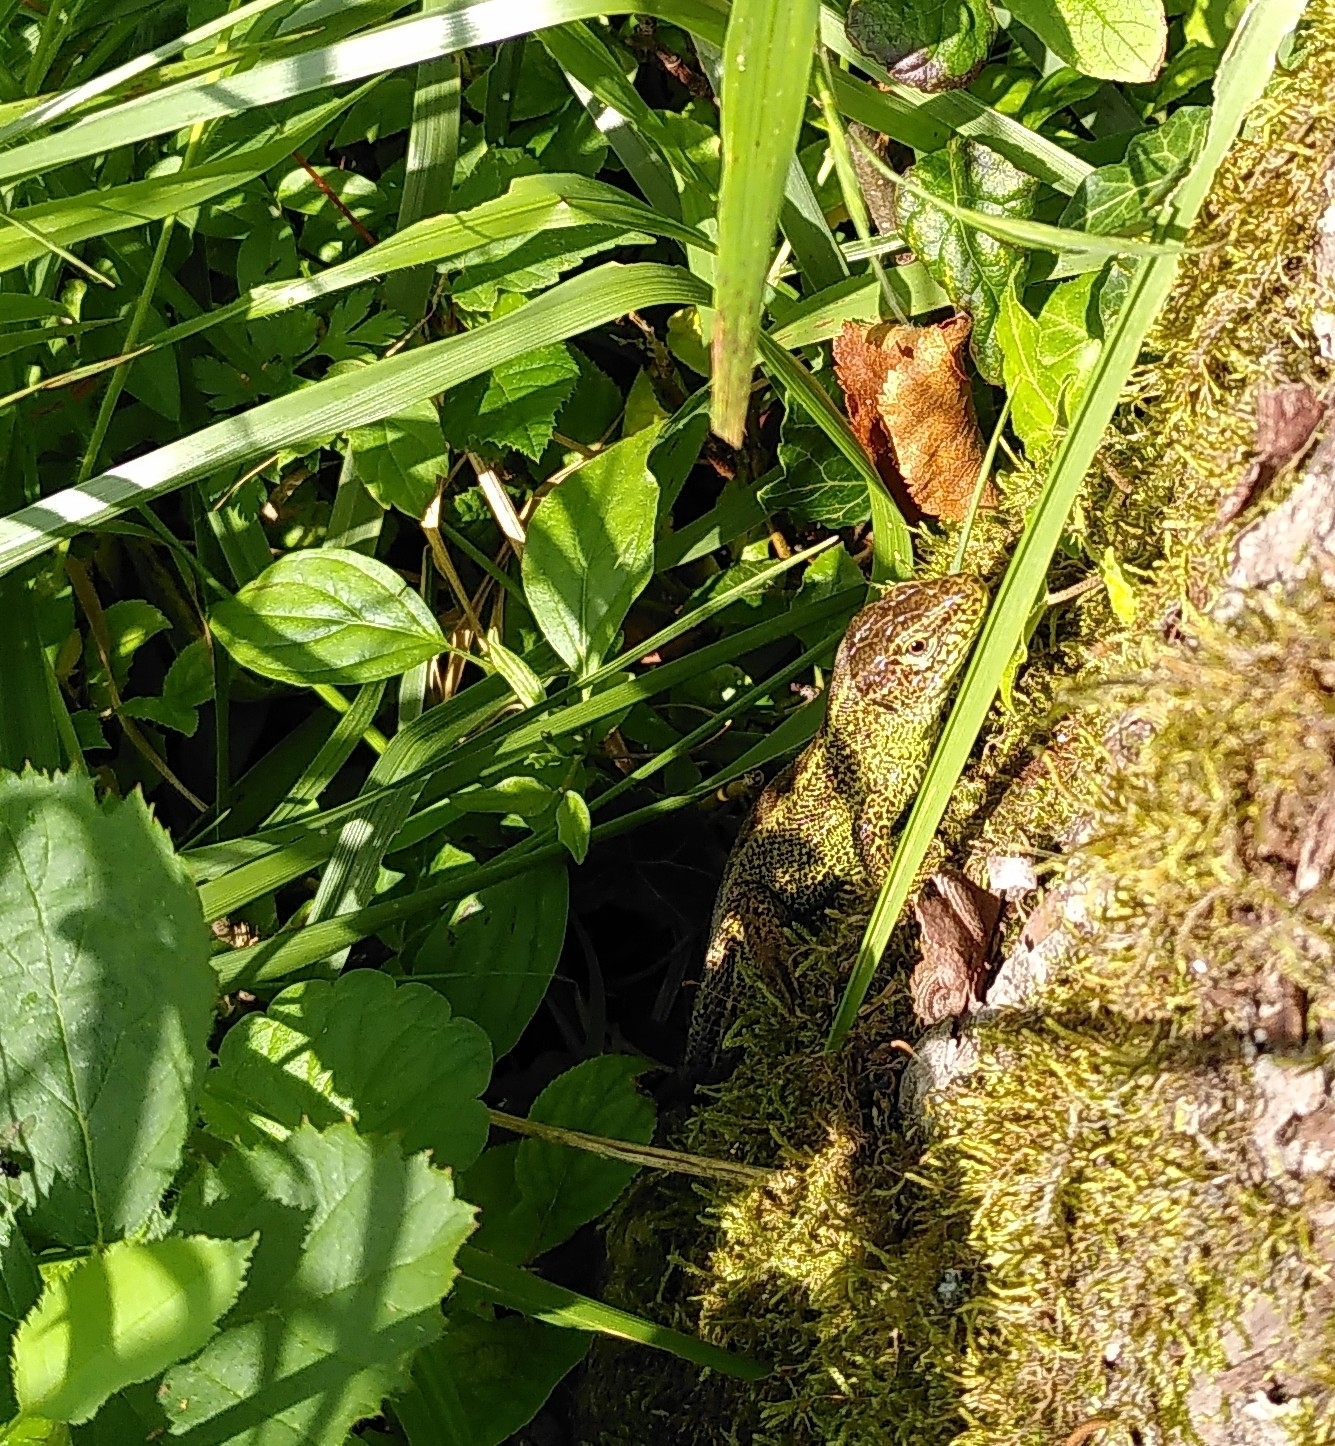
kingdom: Animalia
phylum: Chordata
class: Squamata
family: Lacertidae
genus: Lacerta
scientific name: Lacerta agilis
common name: Sand lizard
